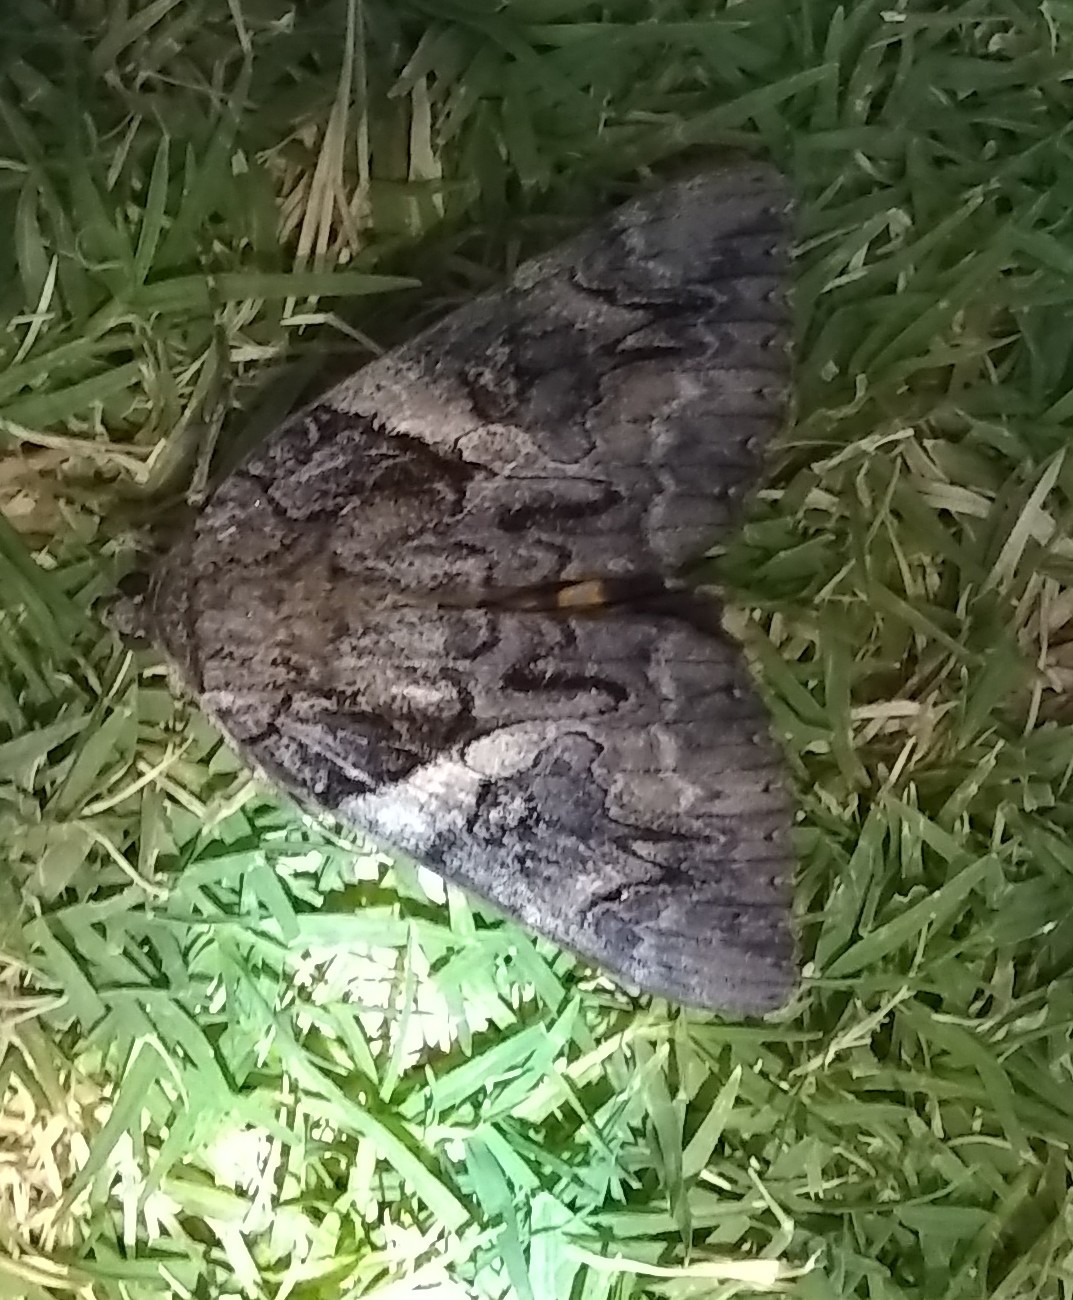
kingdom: Animalia
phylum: Arthropoda
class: Insecta
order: Lepidoptera
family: Erebidae
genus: Catocala
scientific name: Catocala piatrix
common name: The penitent underwing
